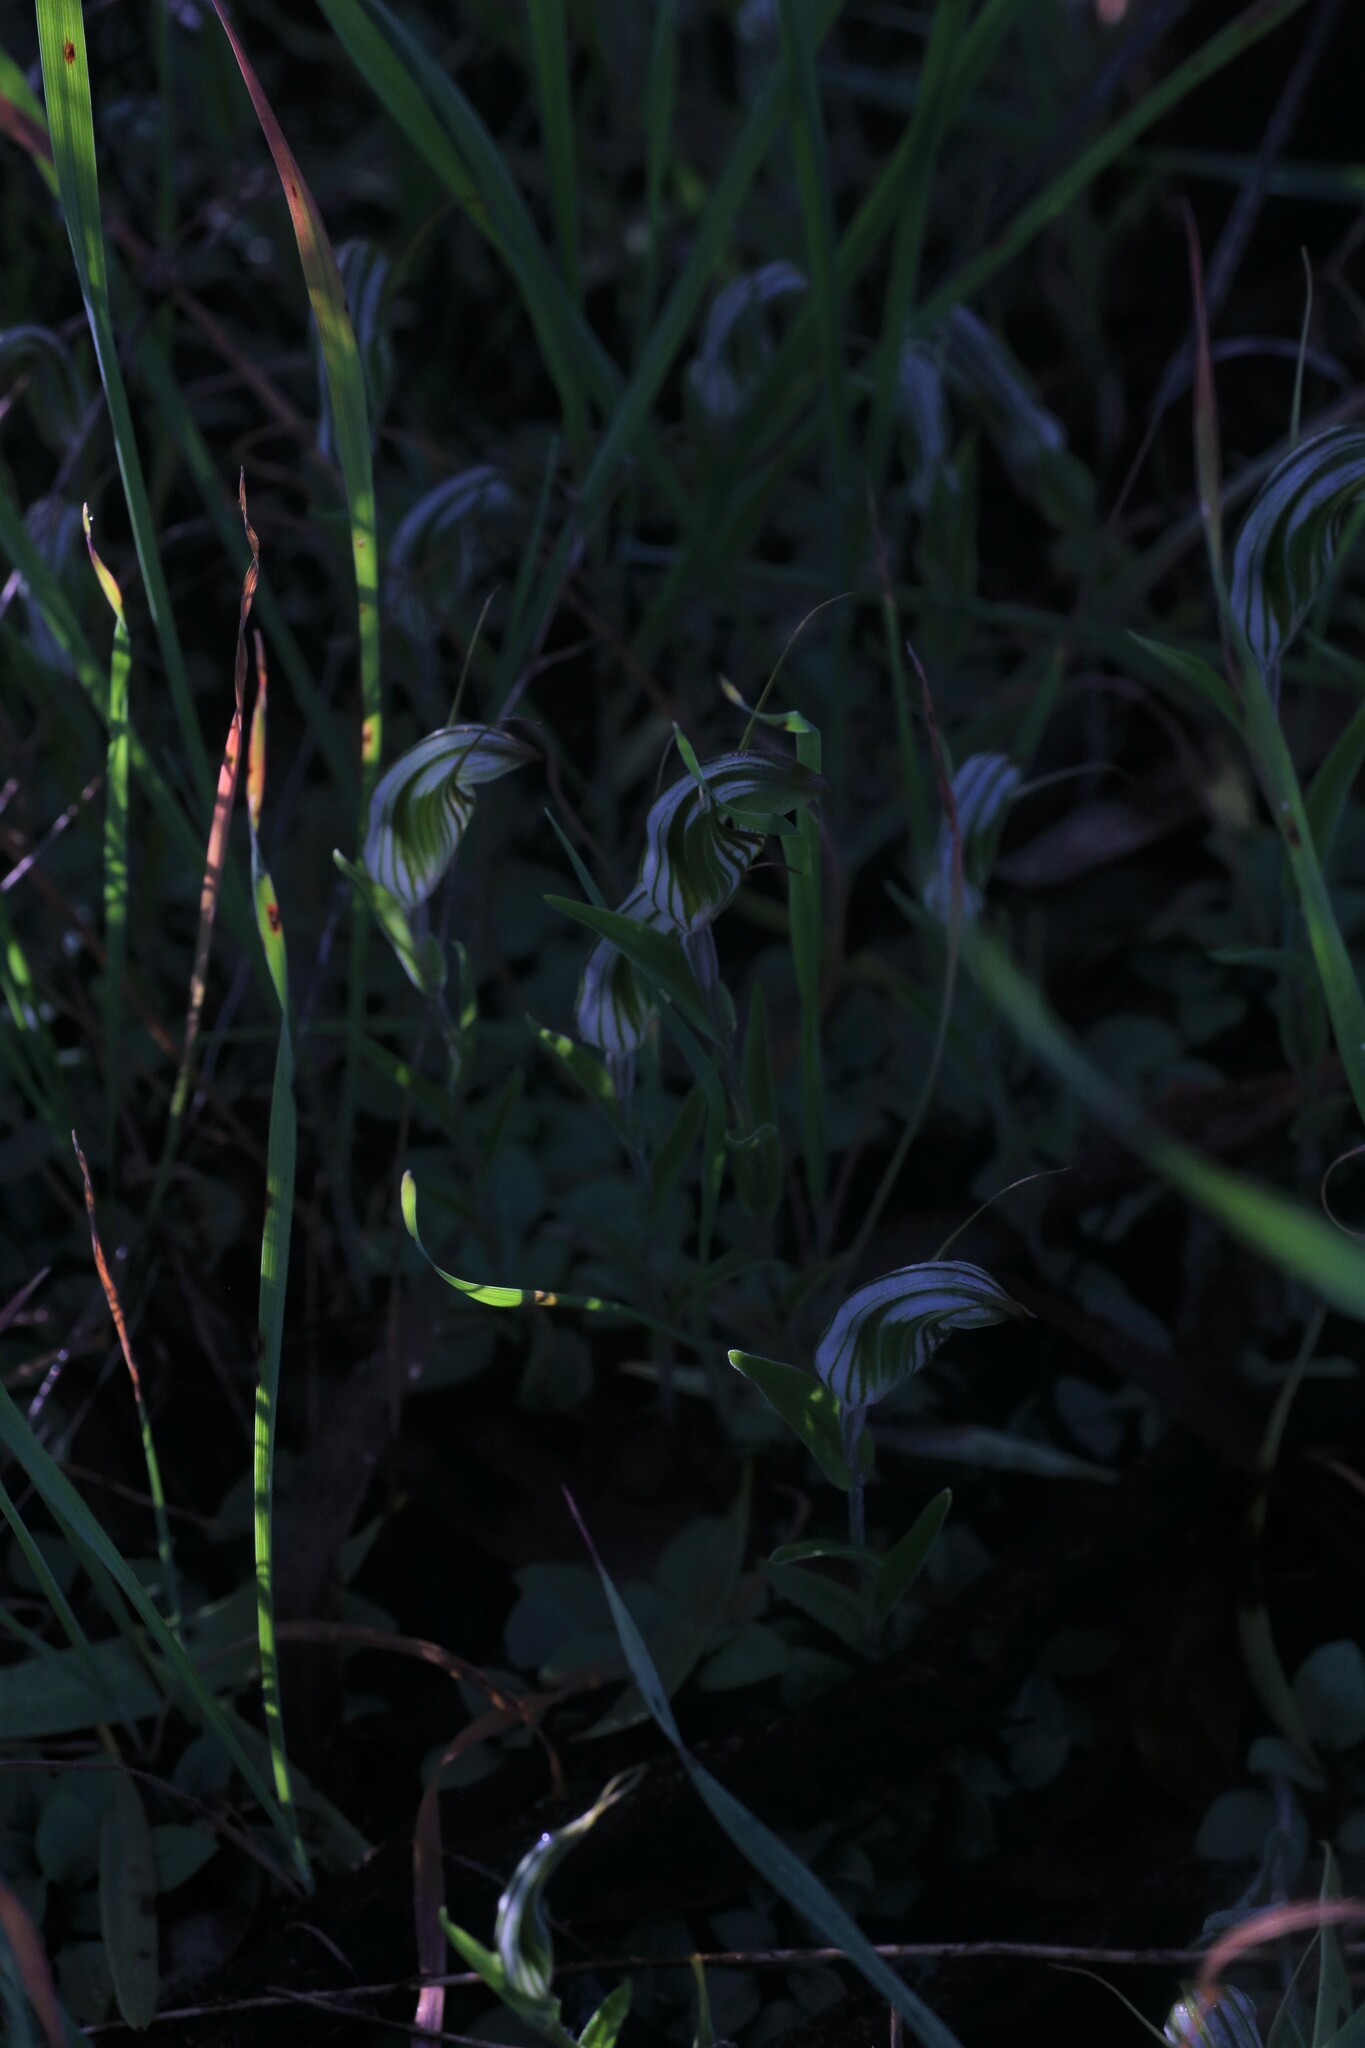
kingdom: Plantae
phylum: Tracheophyta
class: Liliopsida
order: Asparagales
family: Orchidaceae
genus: Pterostylis
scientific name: Pterostylis scabra
